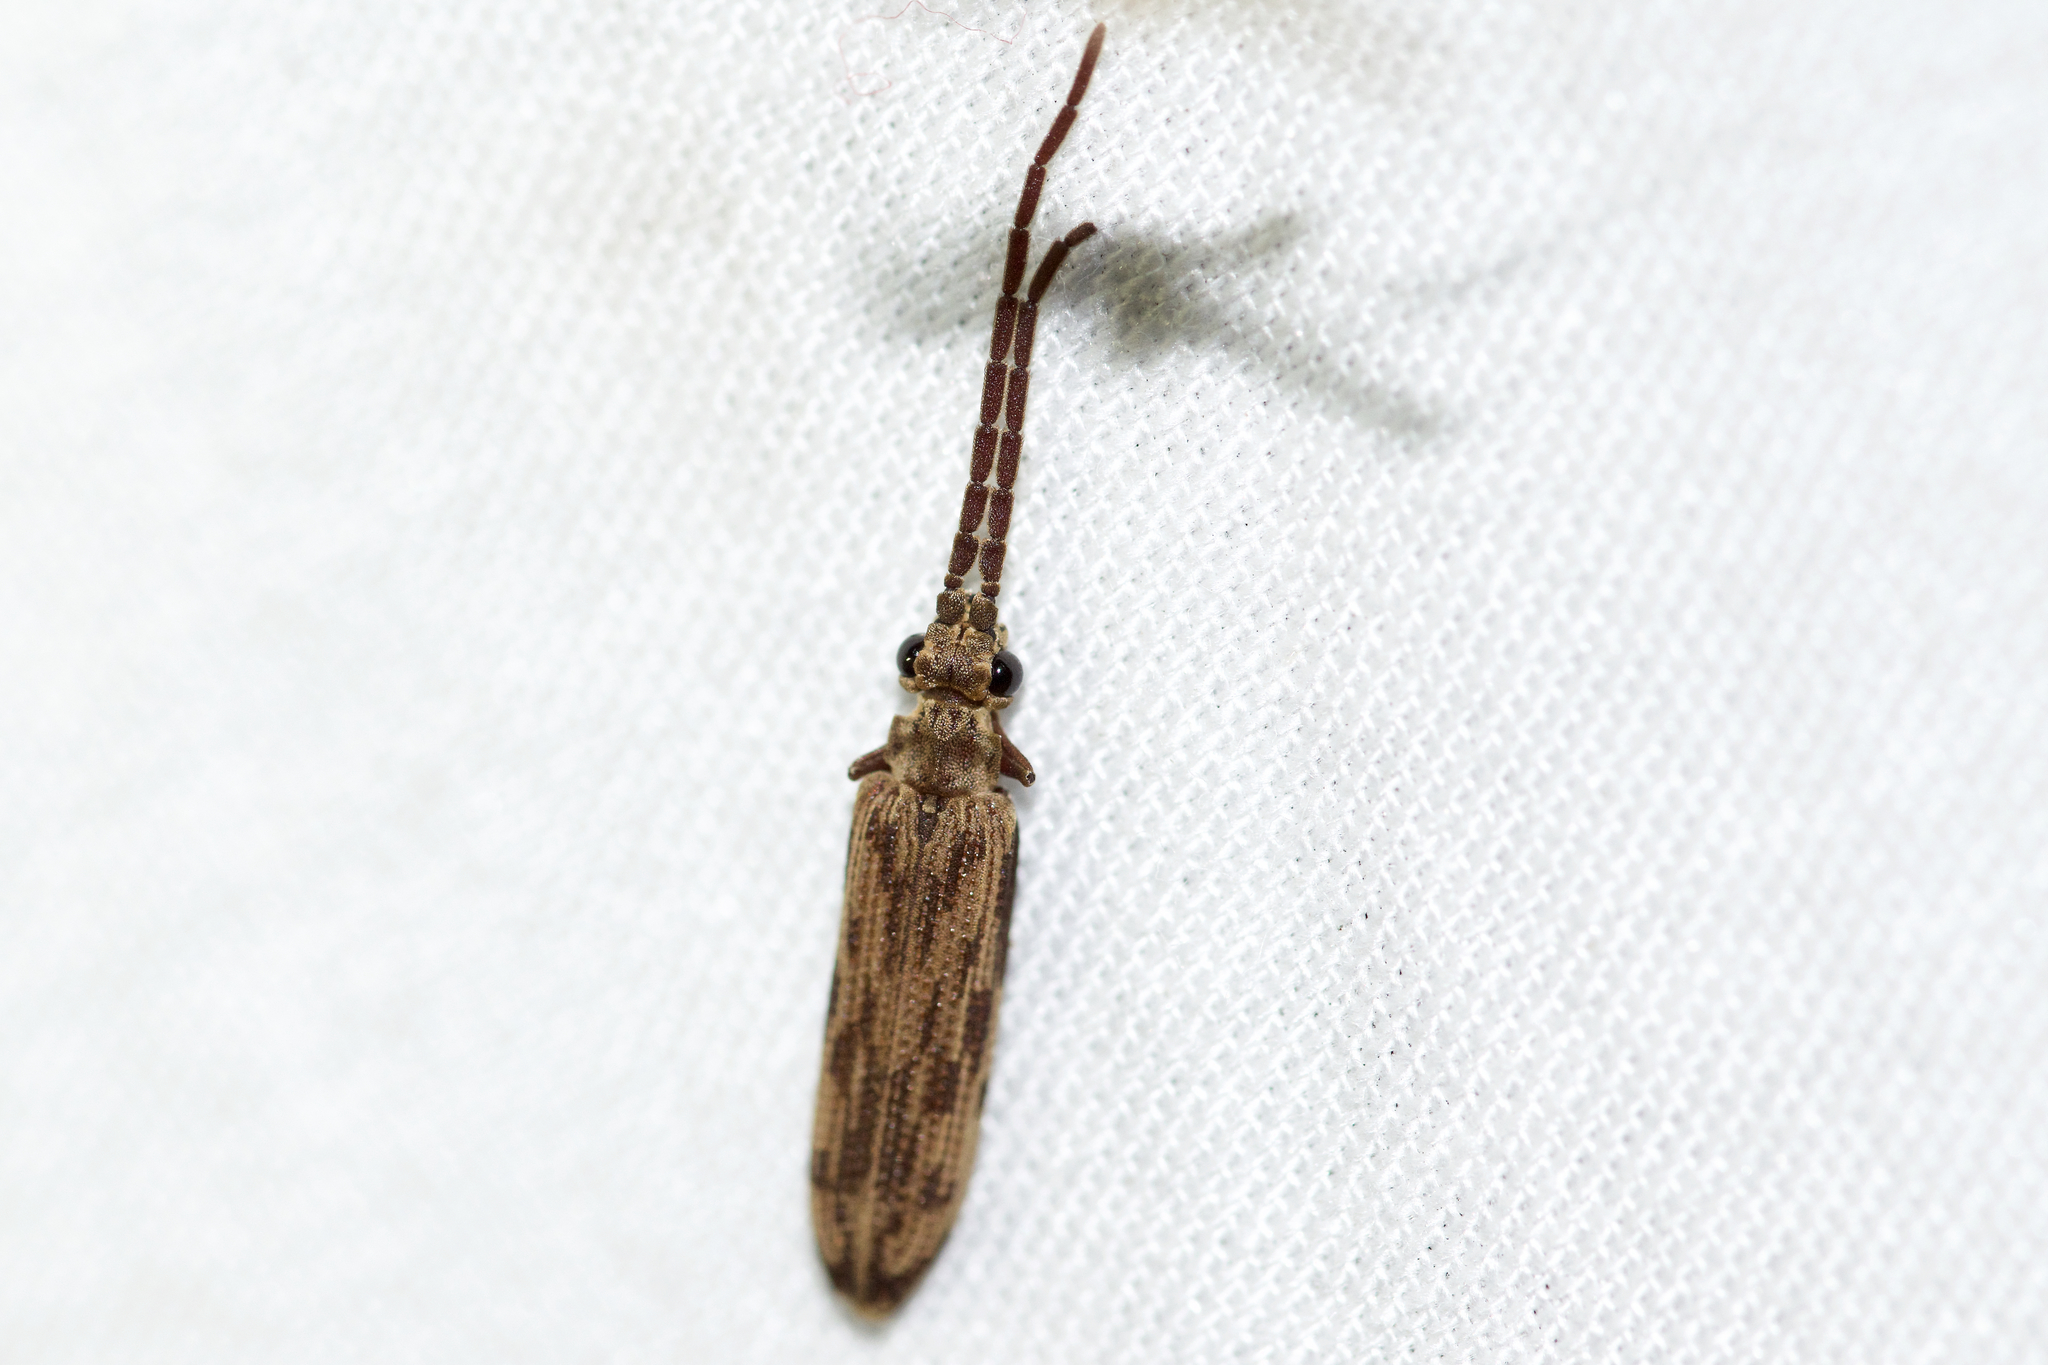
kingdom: Animalia
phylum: Arthropoda
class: Insecta
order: Coleoptera
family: Cupedidae
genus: Tenomerga
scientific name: Tenomerga cinerea
